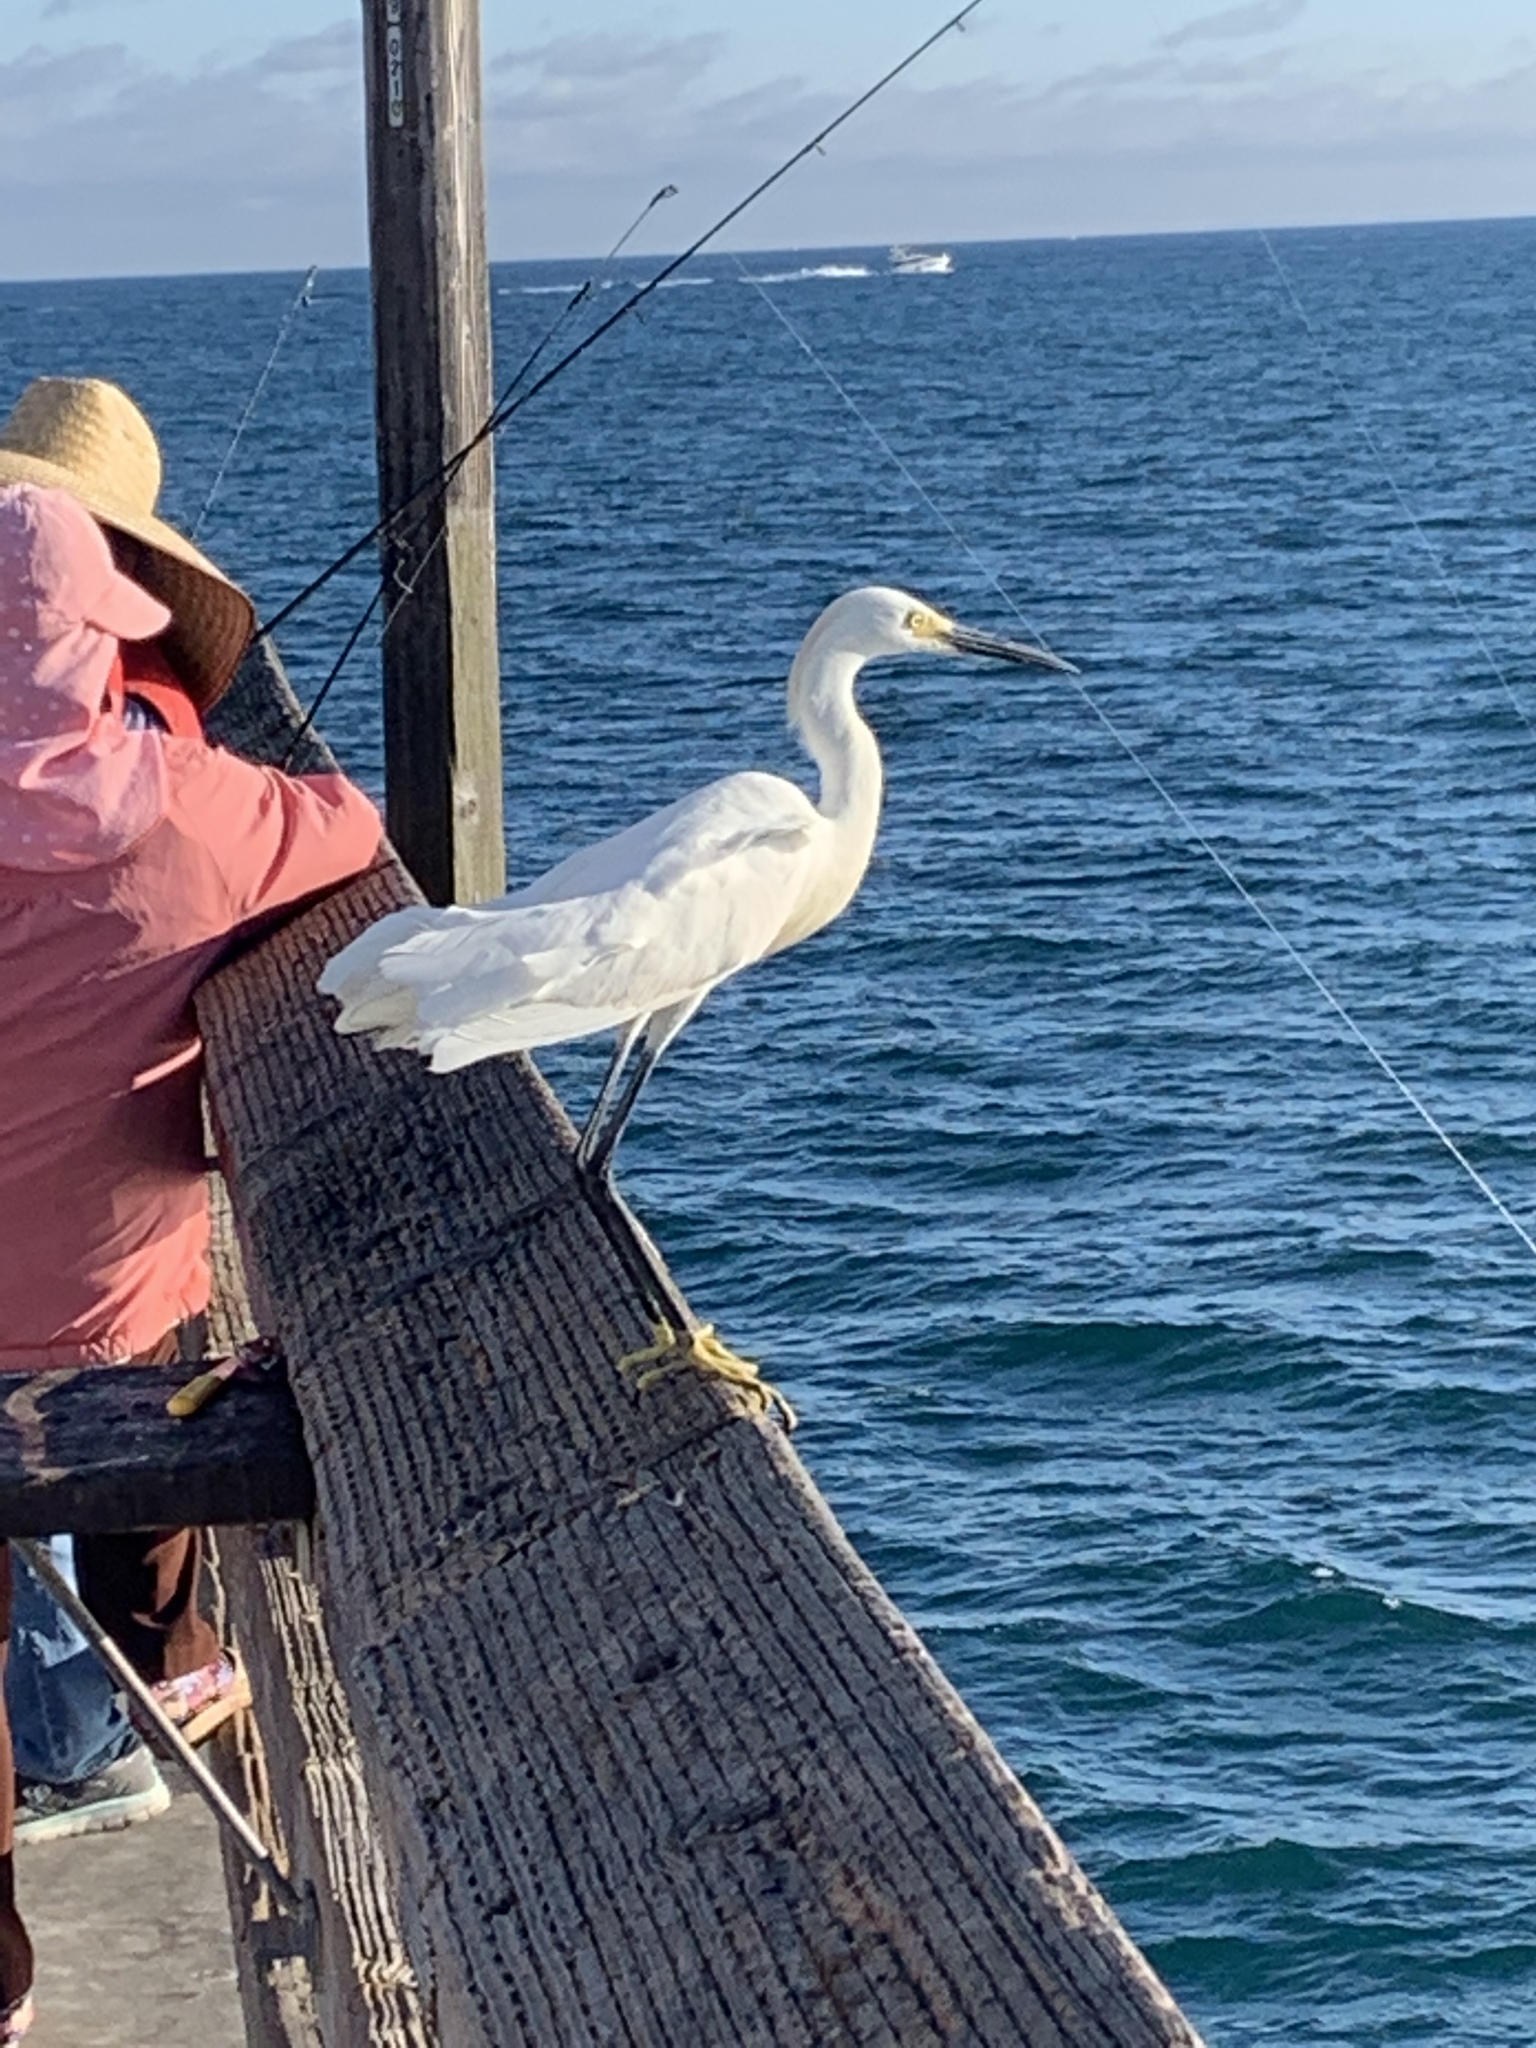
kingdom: Animalia
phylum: Chordata
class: Aves
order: Pelecaniformes
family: Ardeidae
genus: Egretta
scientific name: Egretta thula
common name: Snowy egret
